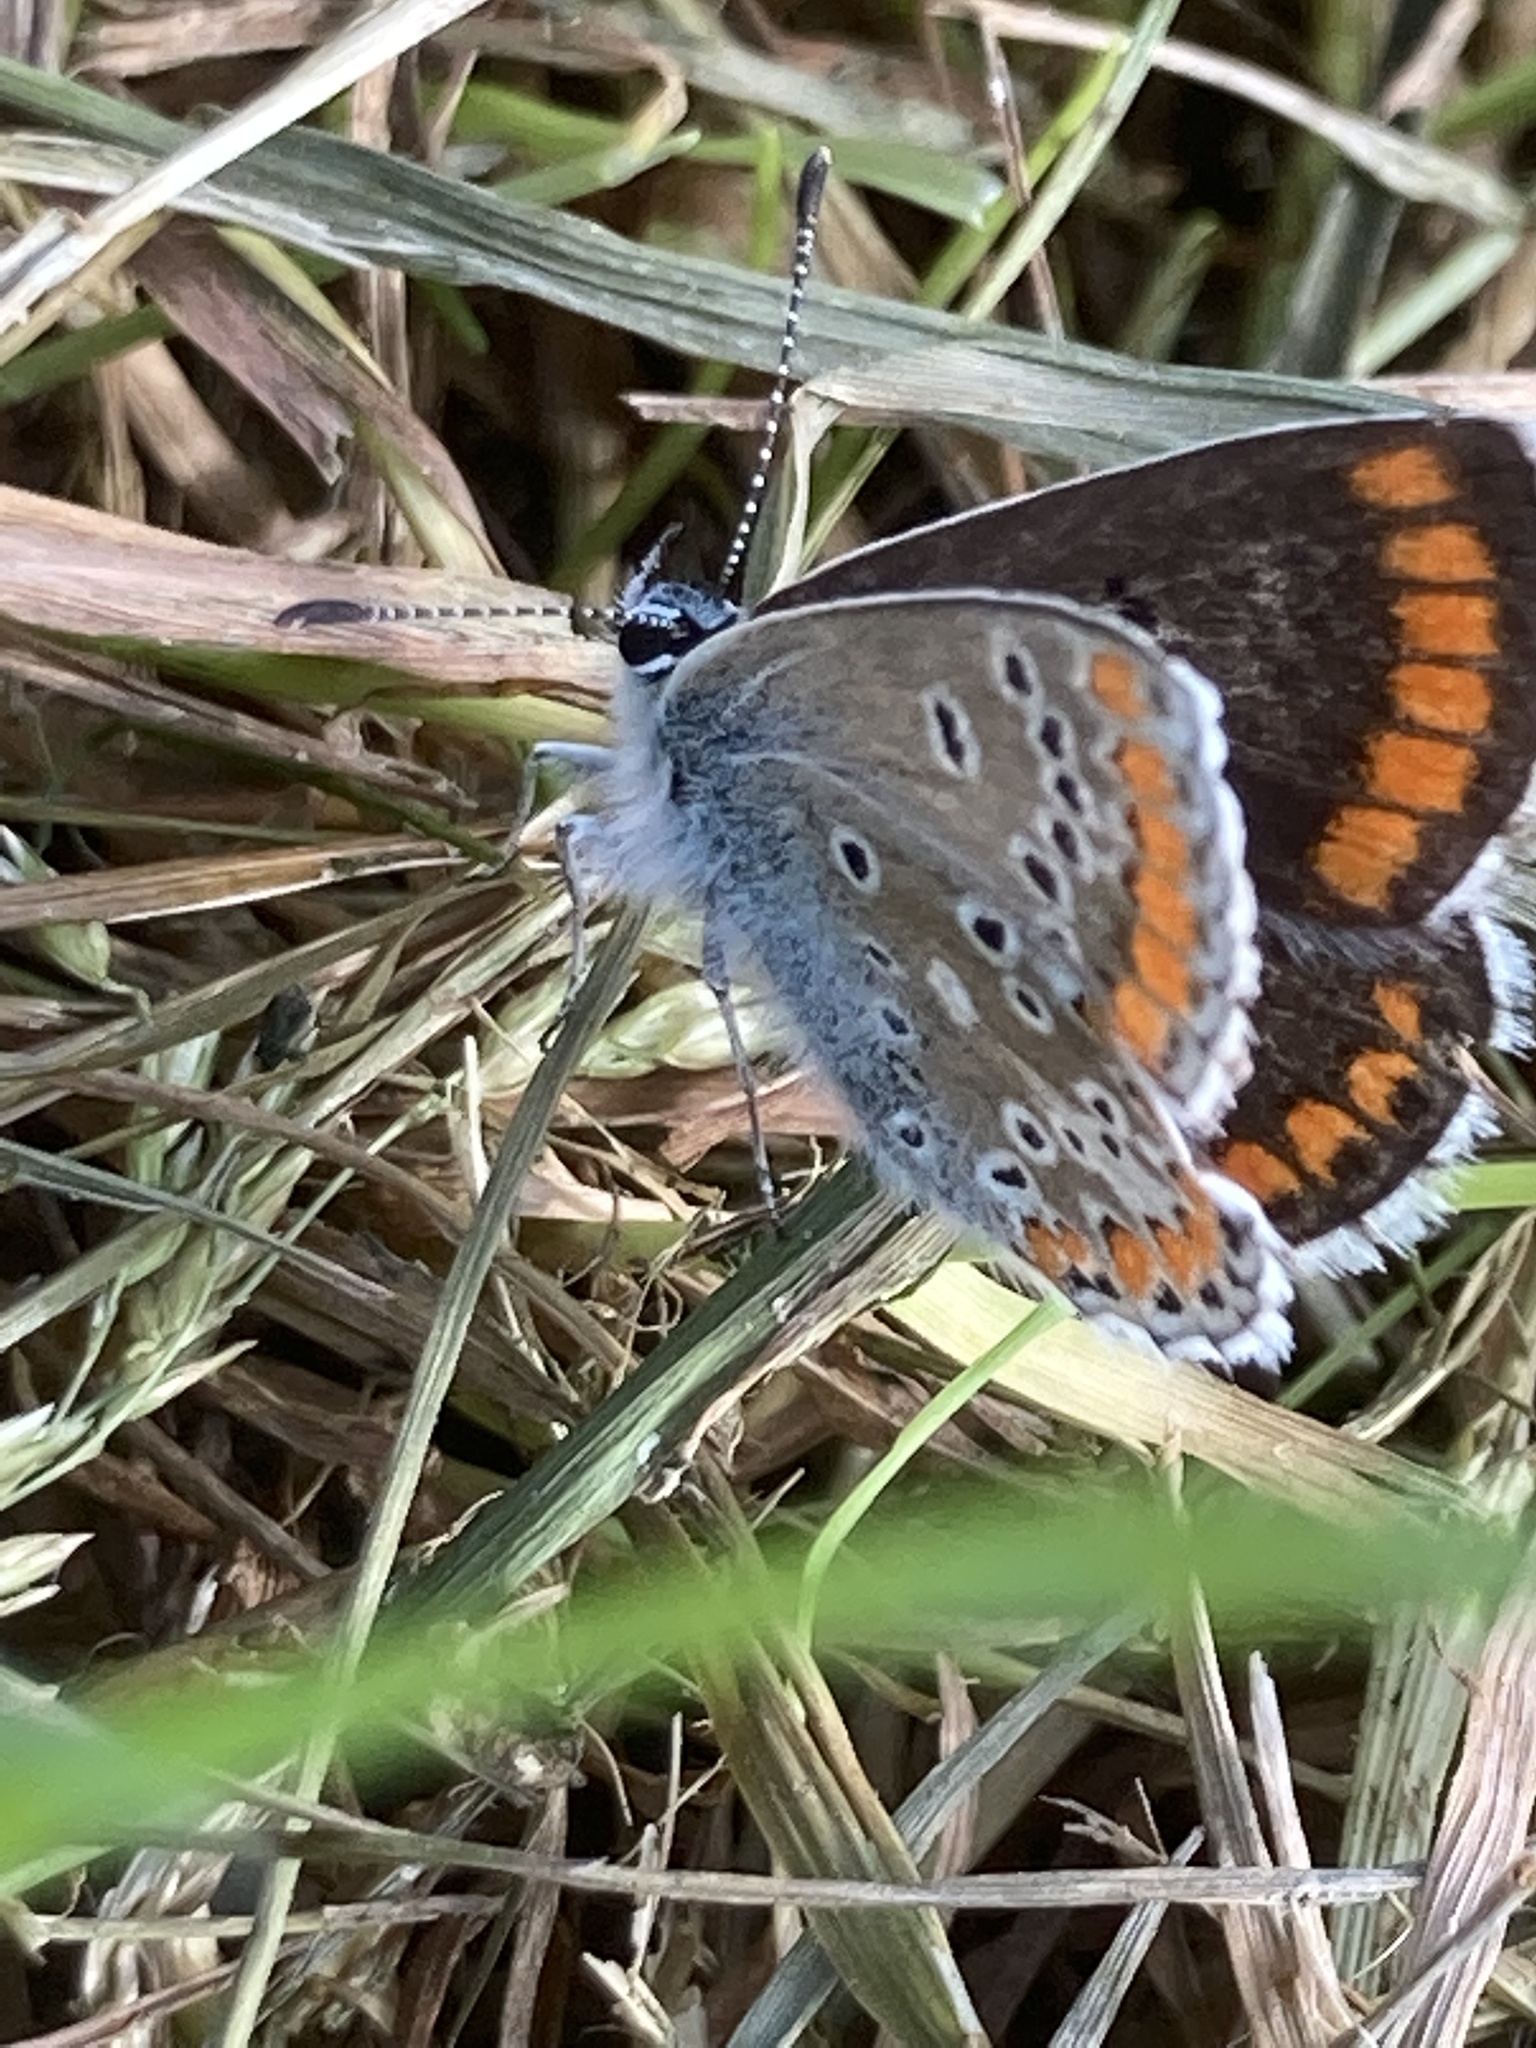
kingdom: Animalia
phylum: Arthropoda
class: Insecta
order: Lepidoptera
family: Lycaenidae
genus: Aricia
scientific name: Aricia agestis
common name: Brown argus
